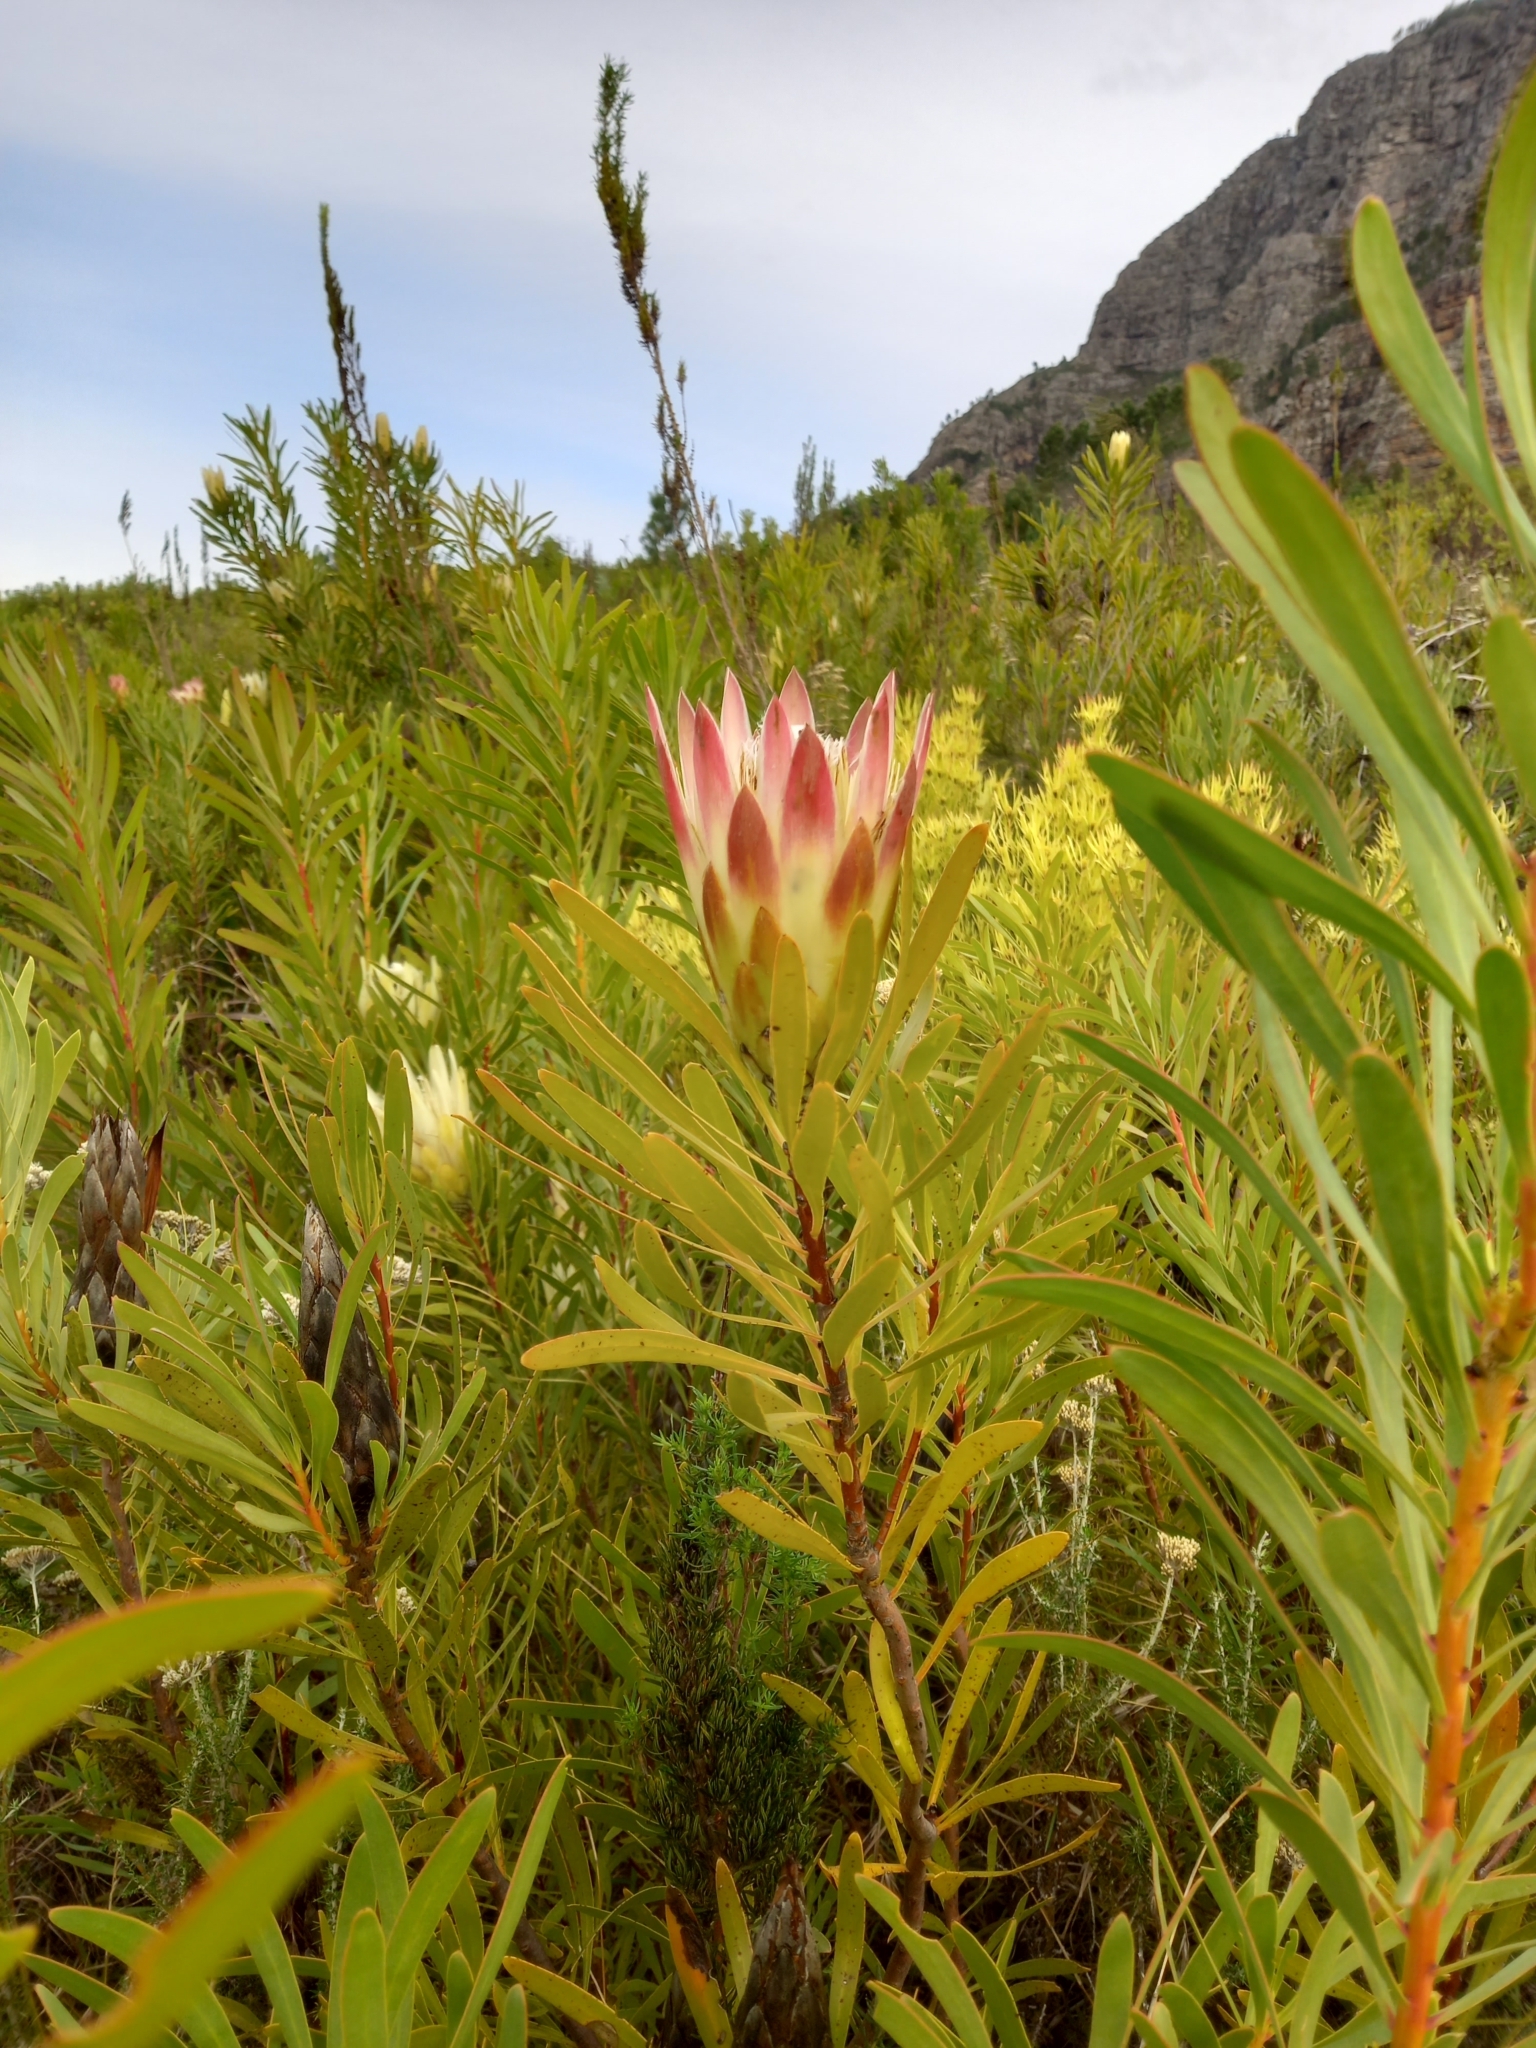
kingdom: Plantae
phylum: Tracheophyta
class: Magnoliopsida
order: Proteales
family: Proteaceae
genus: Protea
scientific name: Protea repens
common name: Sugarbush
